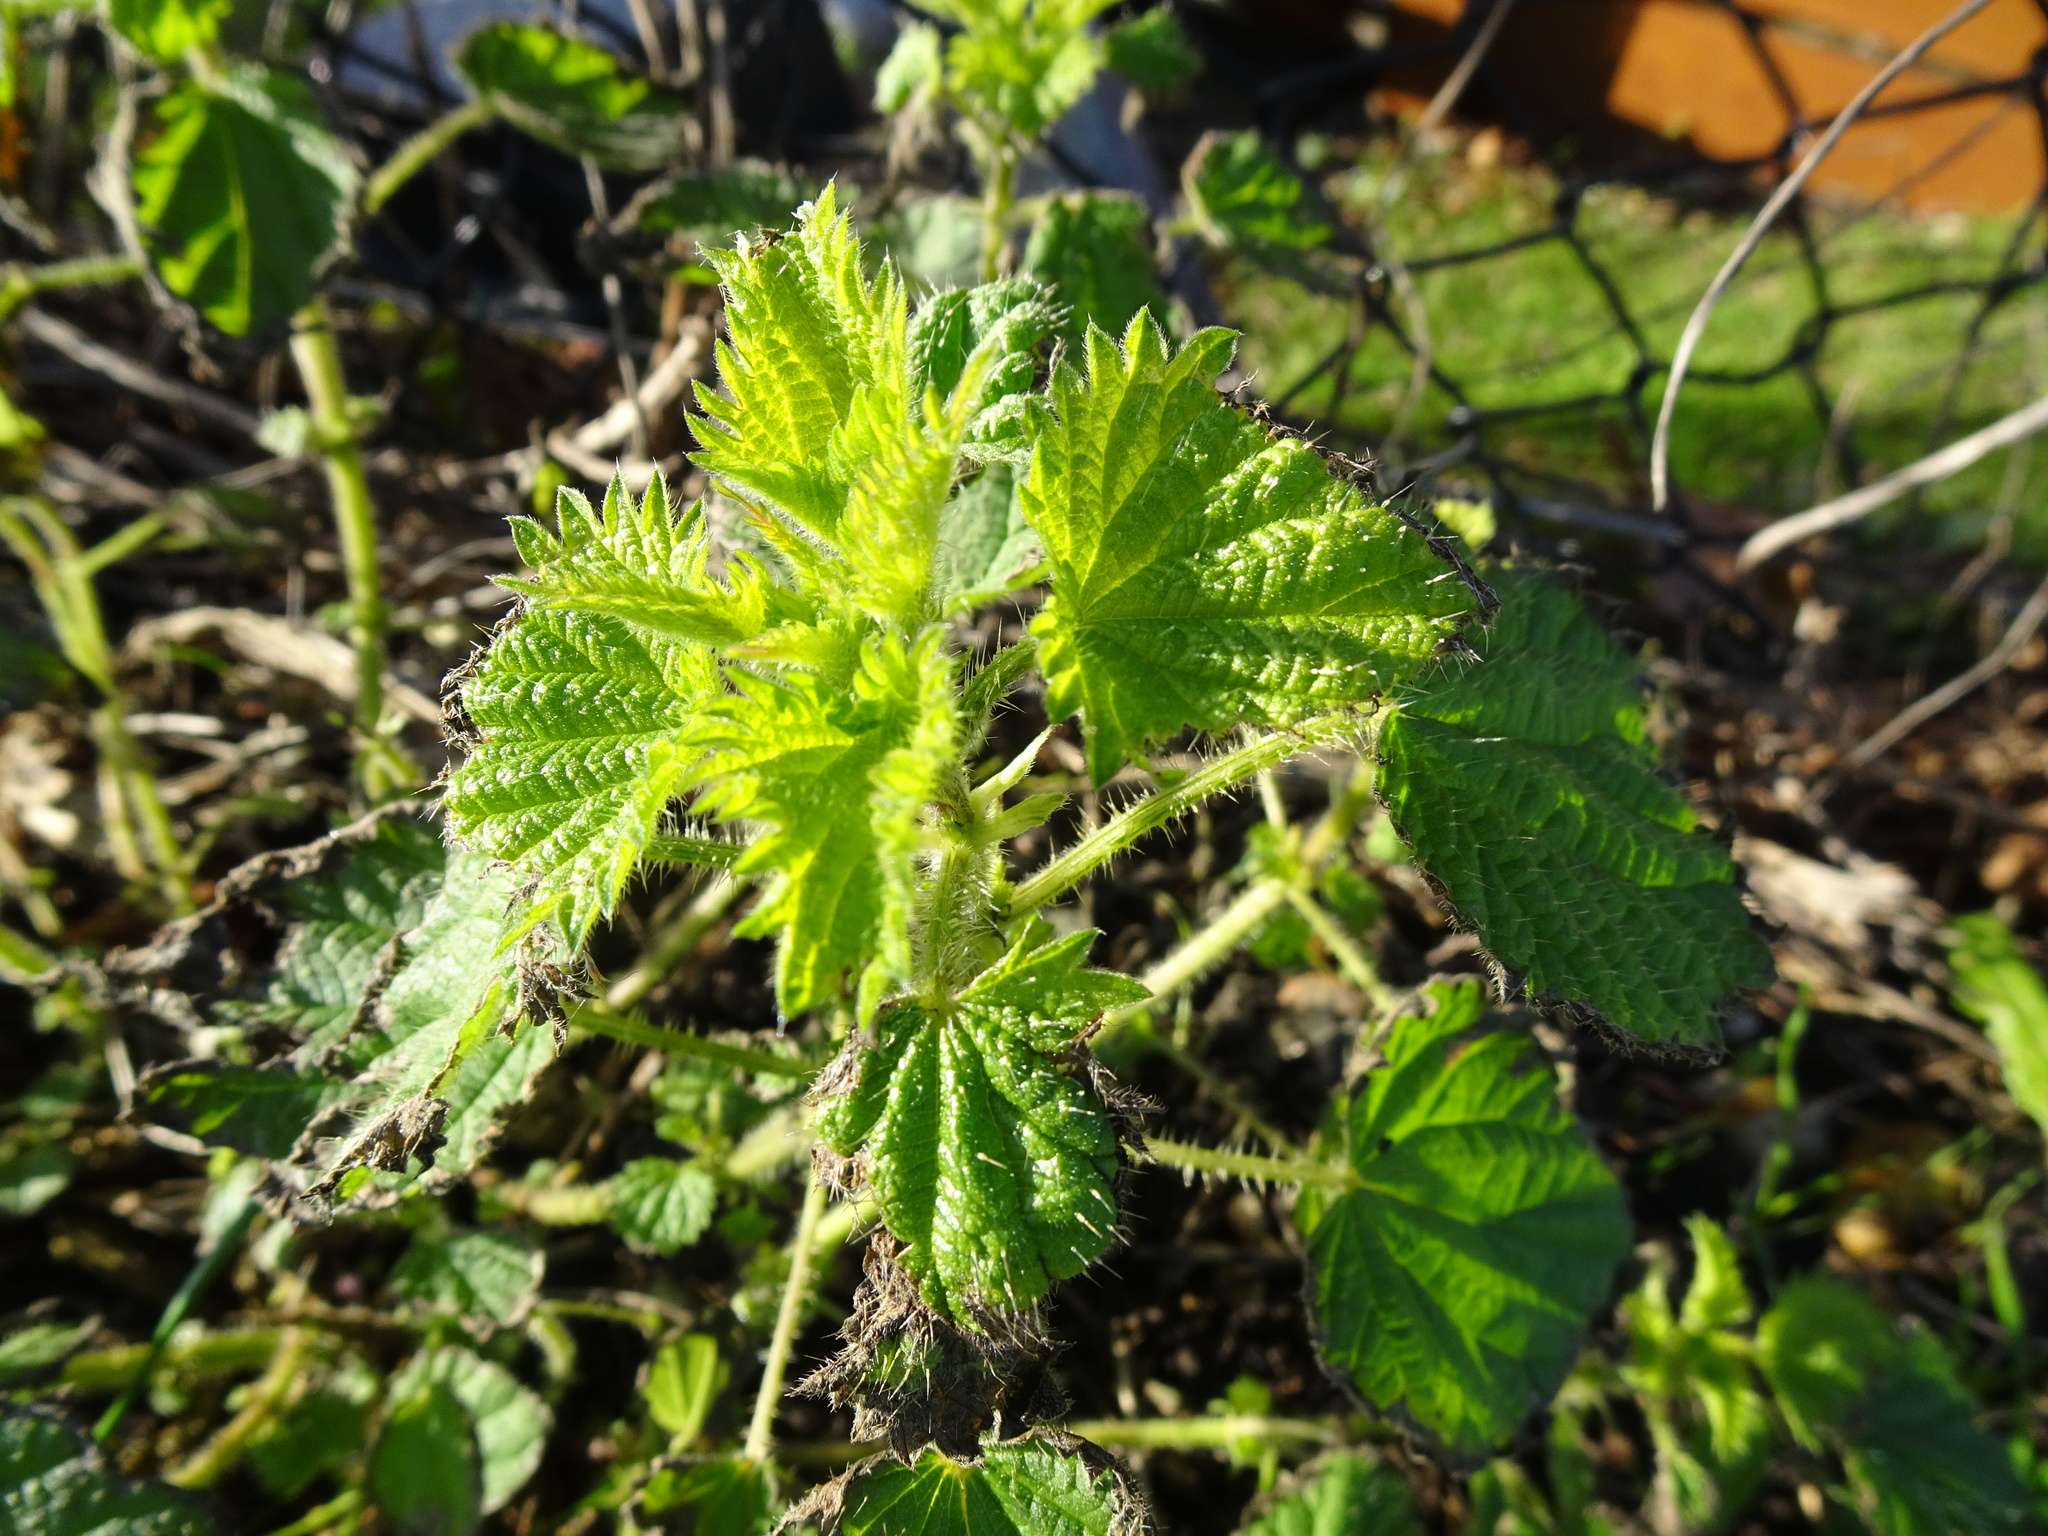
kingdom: Plantae
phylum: Tracheophyta
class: Magnoliopsida
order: Rosales
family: Urticaceae
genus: Urtica
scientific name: Urtica dioica
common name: Common nettle
